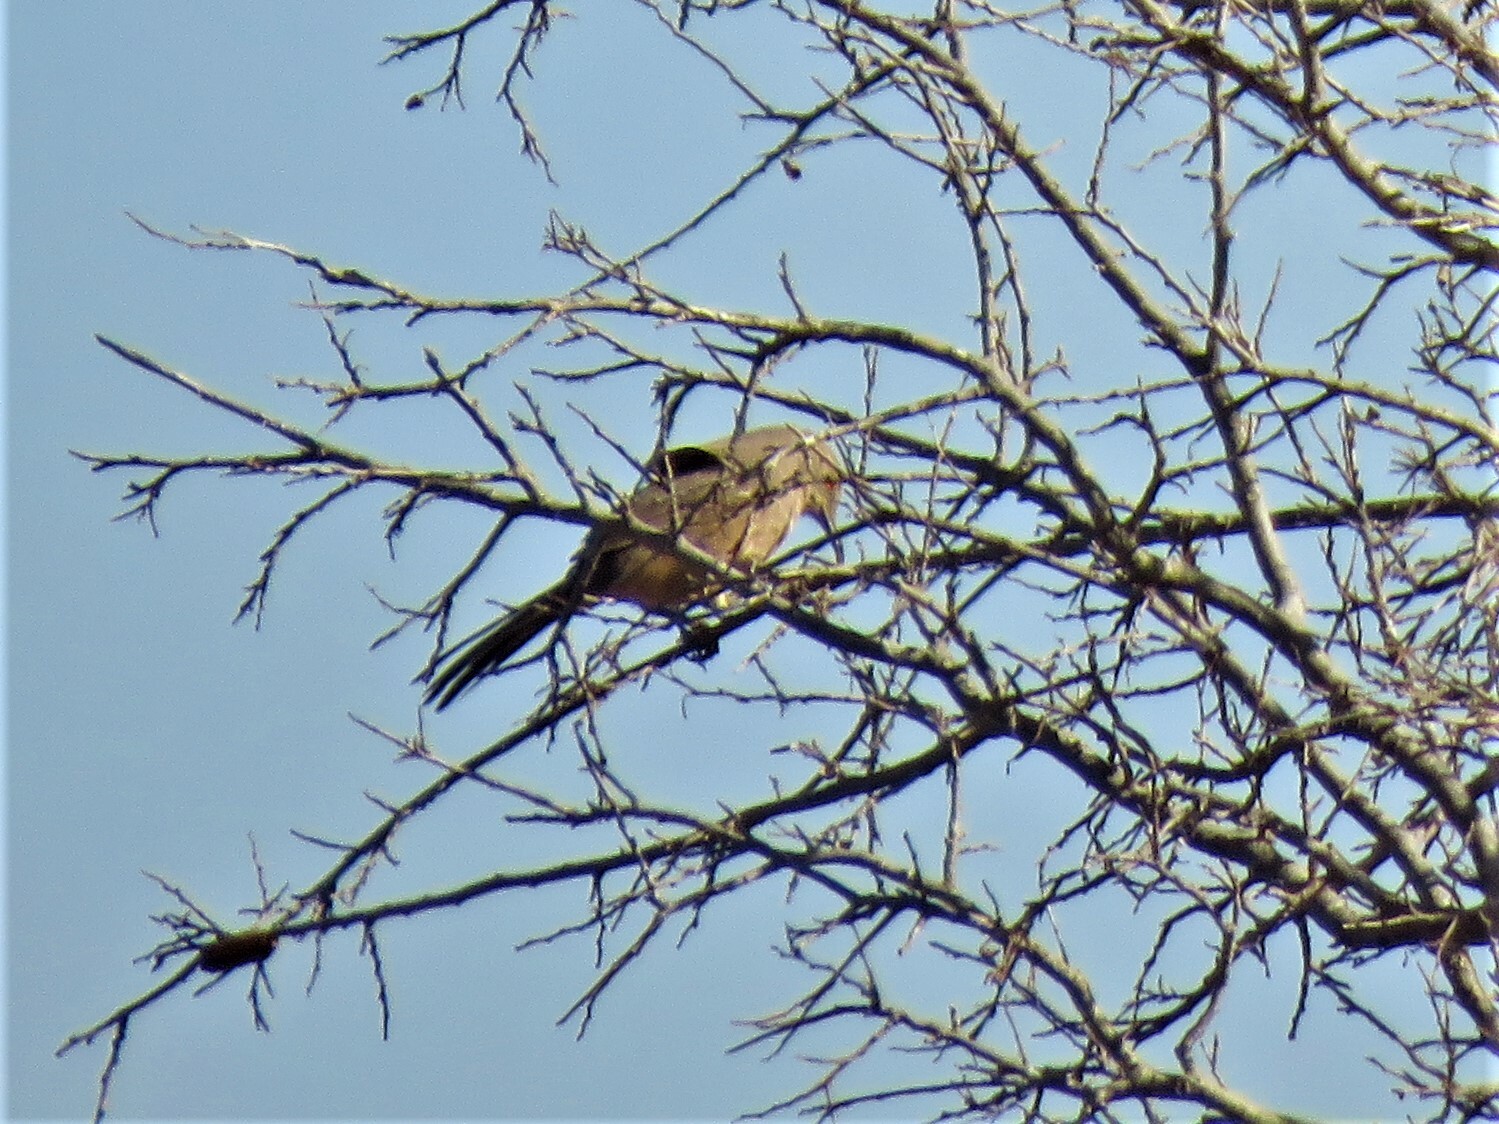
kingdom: Animalia
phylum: Chordata
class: Aves
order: Passeriformes
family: Mimidae
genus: Toxostoma
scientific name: Toxostoma curvirostre
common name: Curve-billed thrasher
